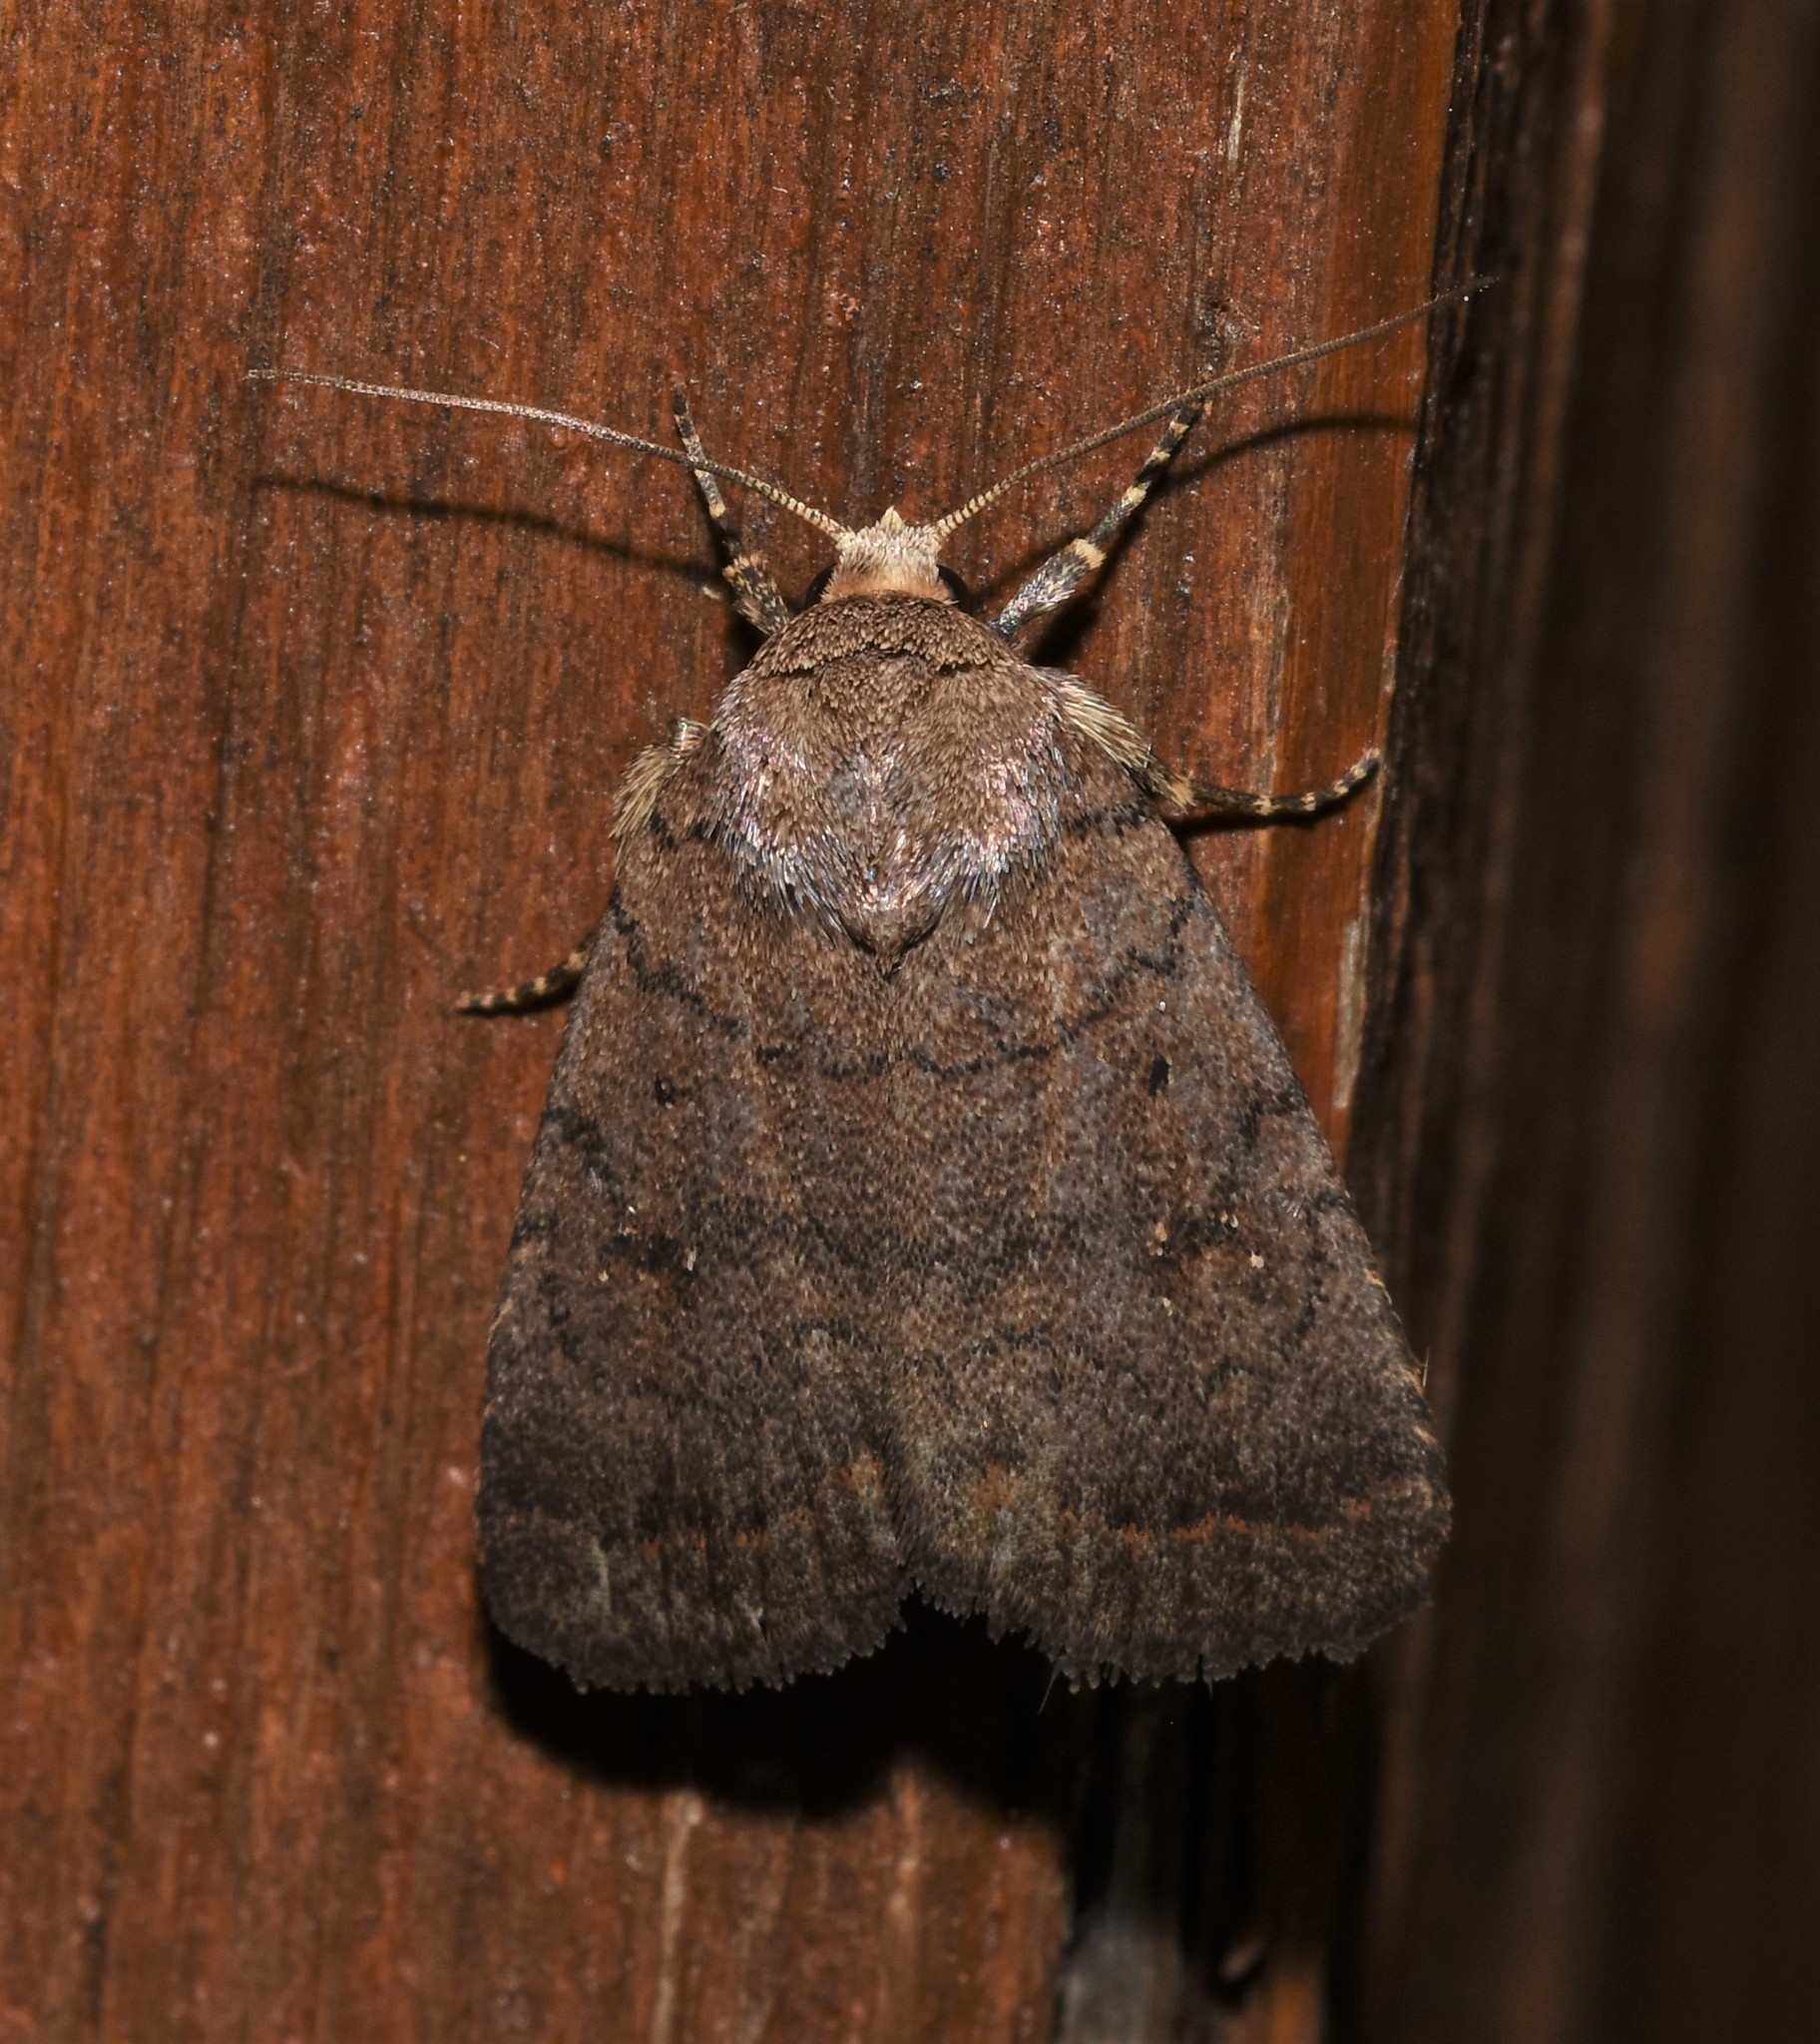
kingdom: Animalia
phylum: Arthropoda
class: Insecta
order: Lepidoptera
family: Noctuidae
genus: Athetis
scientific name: Athetis tarda
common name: Slowpoke moth
